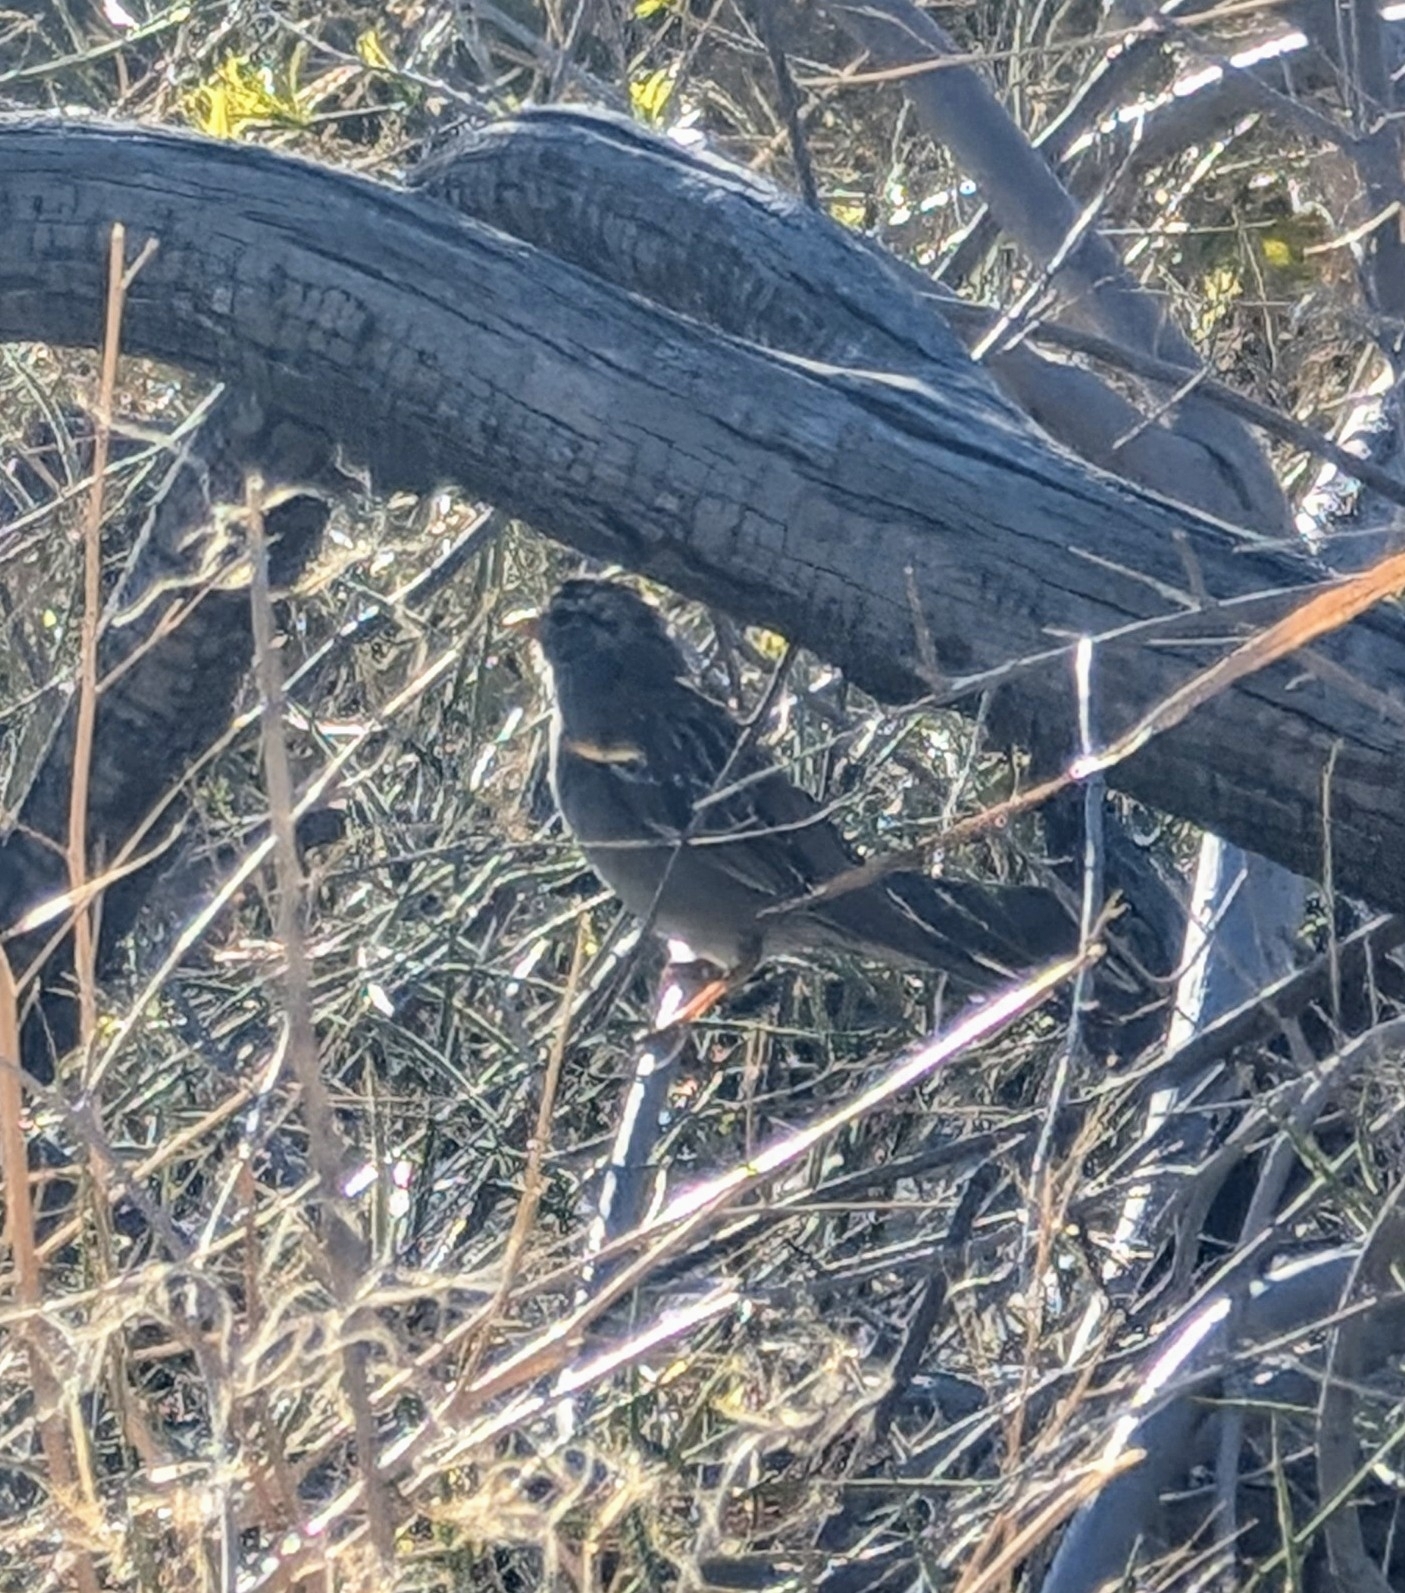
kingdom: Animalia
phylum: Chordata
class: Aves
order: Passeriformes
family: Passerellidae
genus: Zonotrichia
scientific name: Zonotrichia leucophrys
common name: White-crowned sparrow
